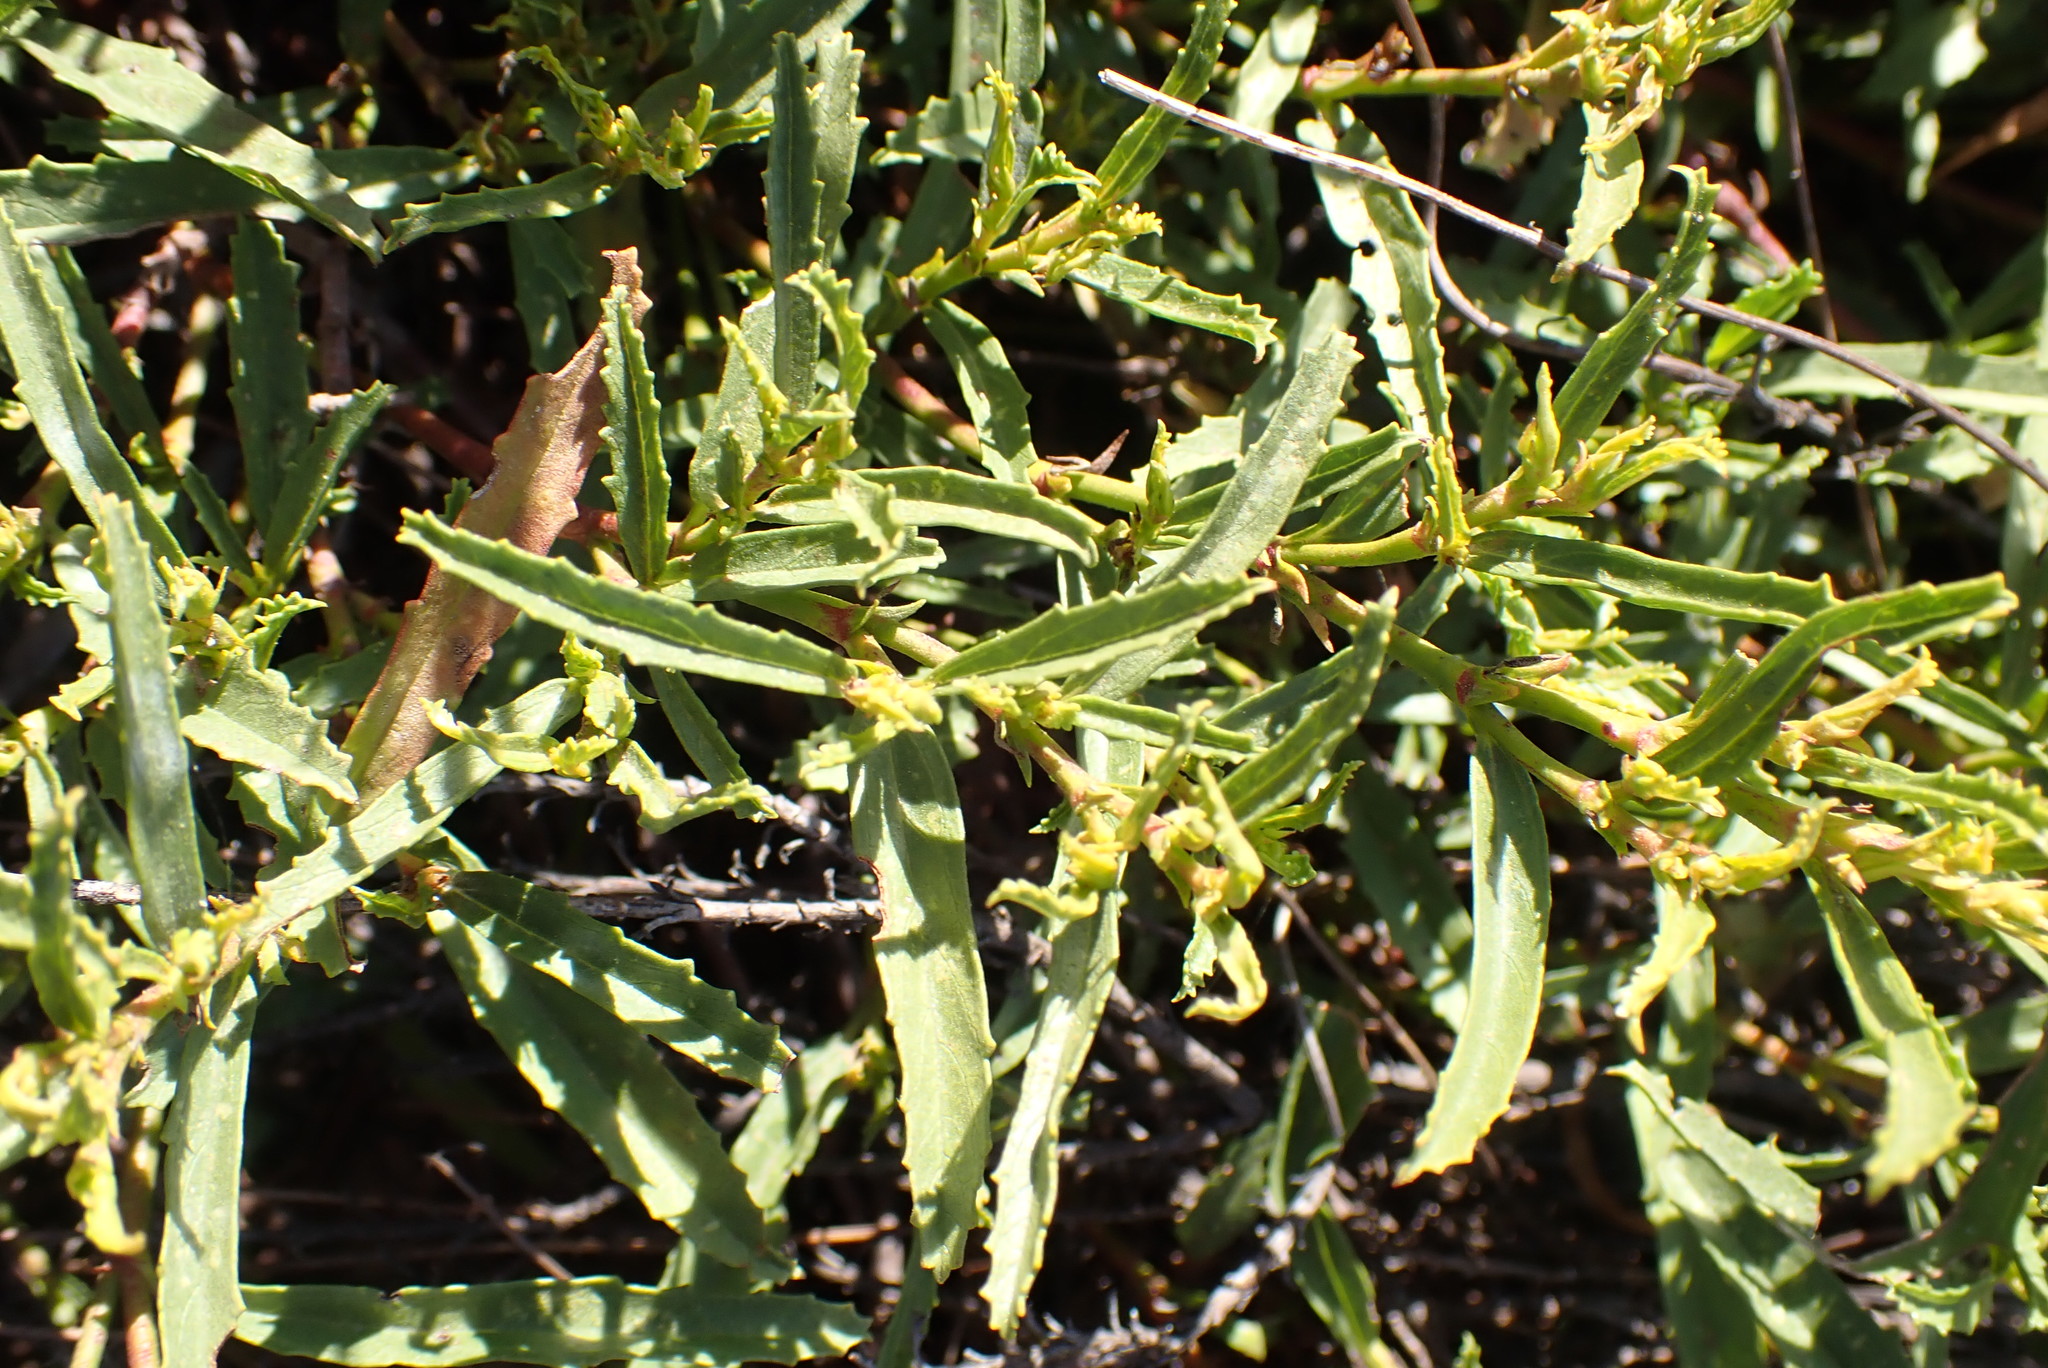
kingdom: Plantae
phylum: Tracheophyta
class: Magnoliopsida
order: Malvales
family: Malvaceae
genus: Hermannia
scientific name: Hermannia saccifera
